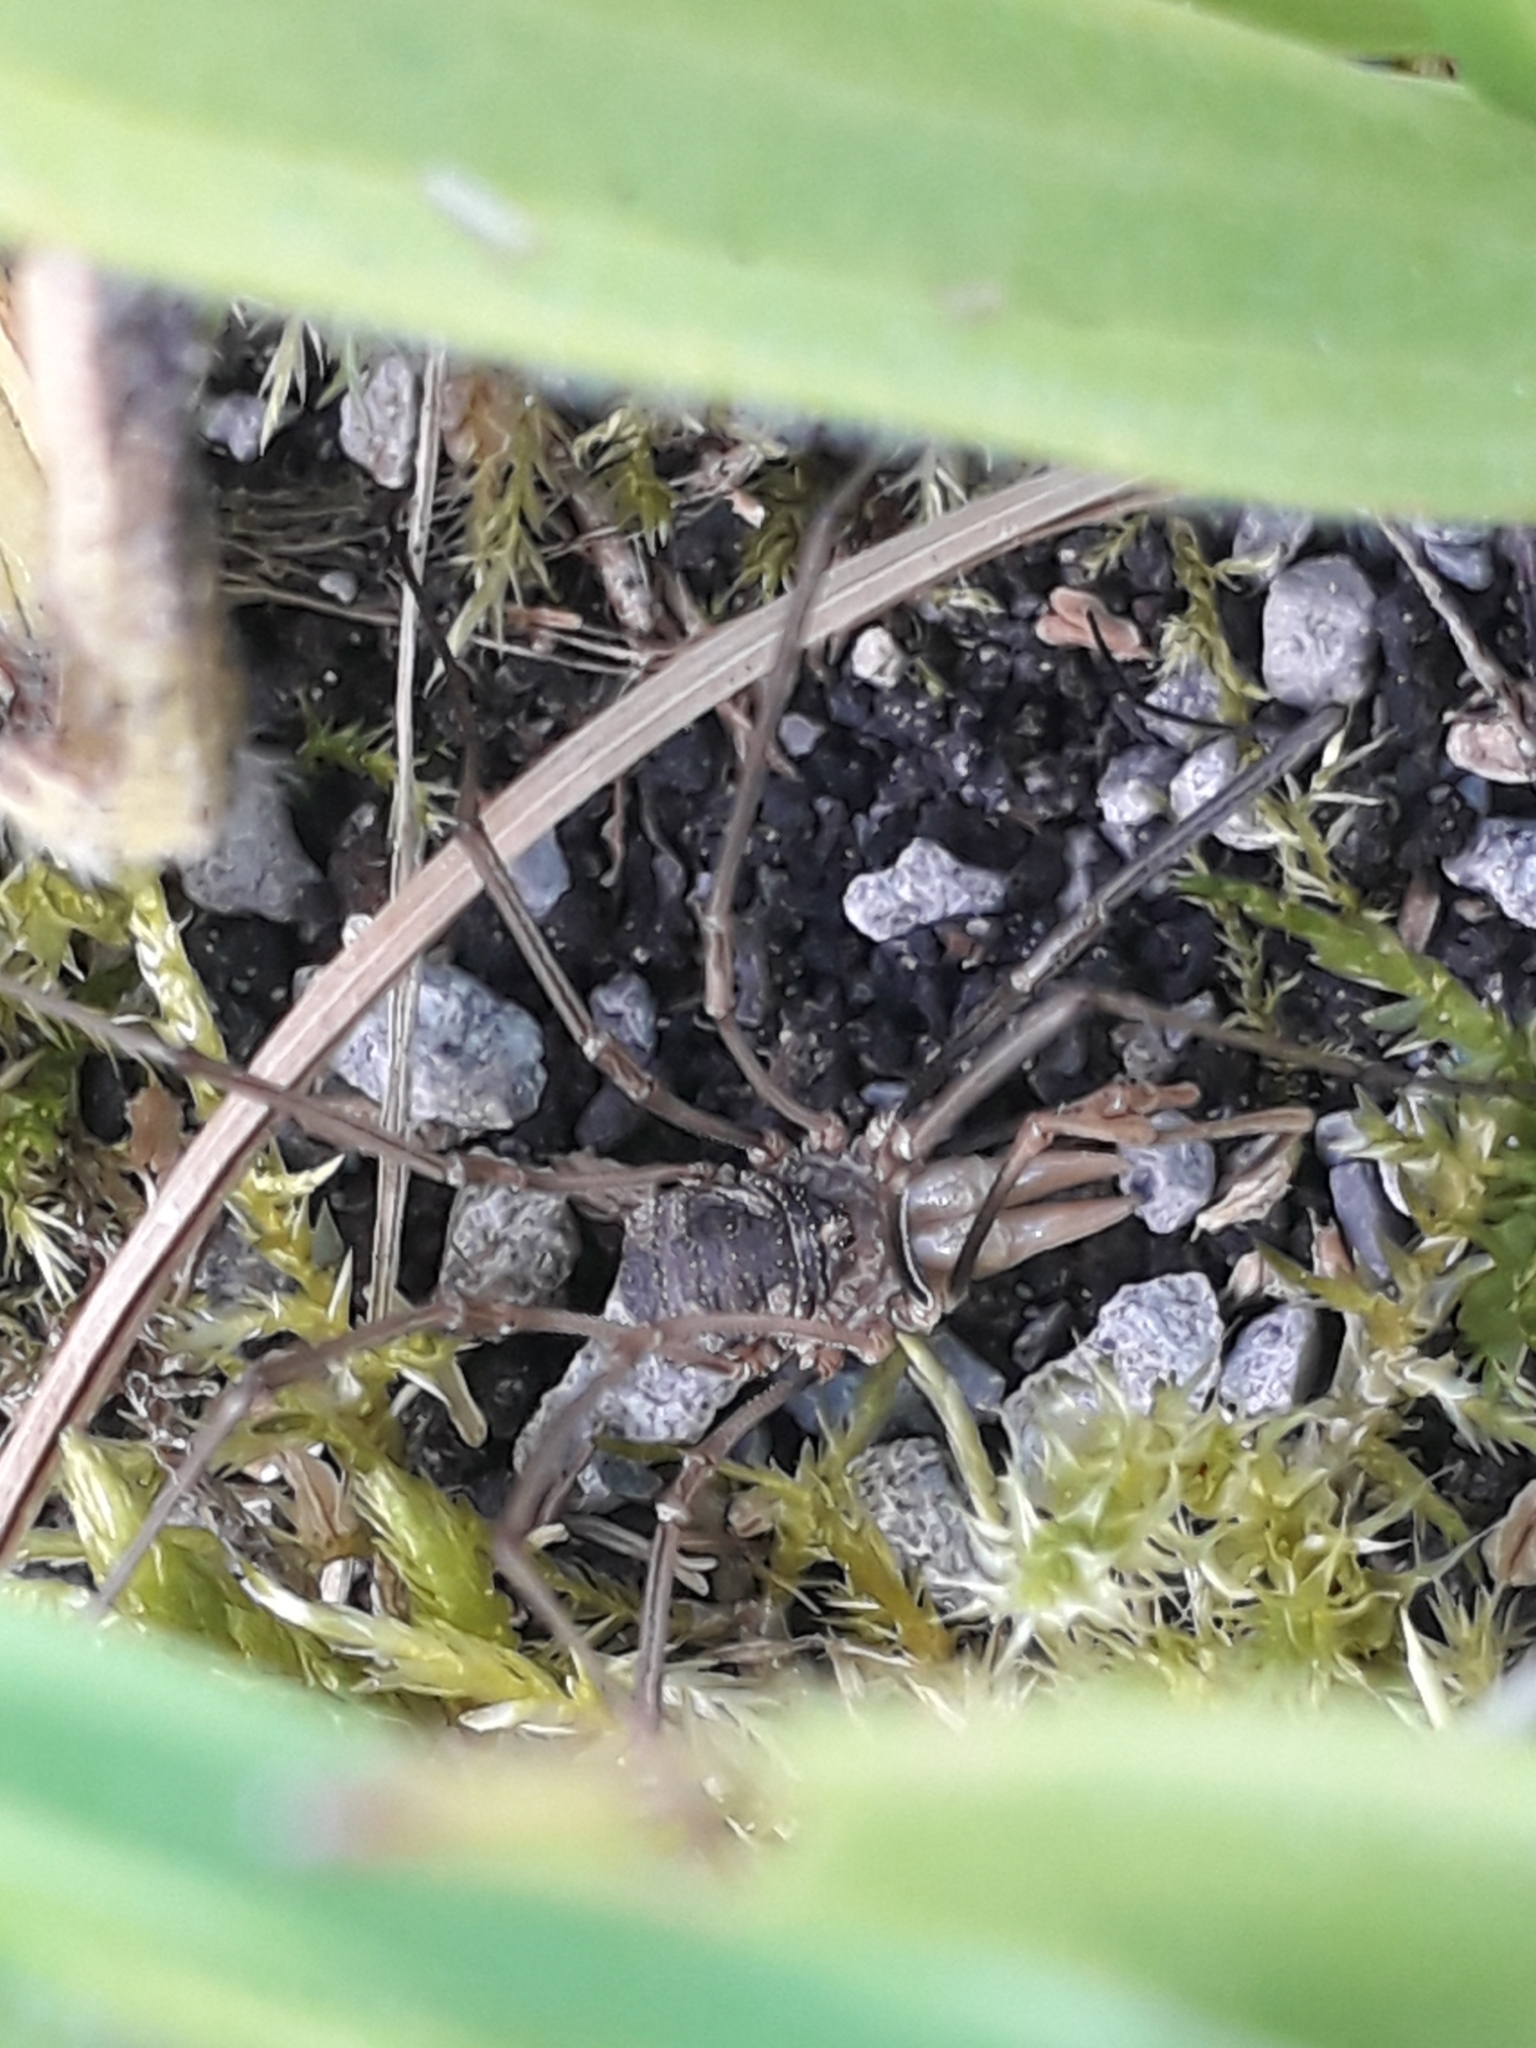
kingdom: Animalia
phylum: Arthropoda
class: Arachnida
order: Opiliones
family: Phalangiidae
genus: Phalangium
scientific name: Phalangium opilio
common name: Daddy longleg
